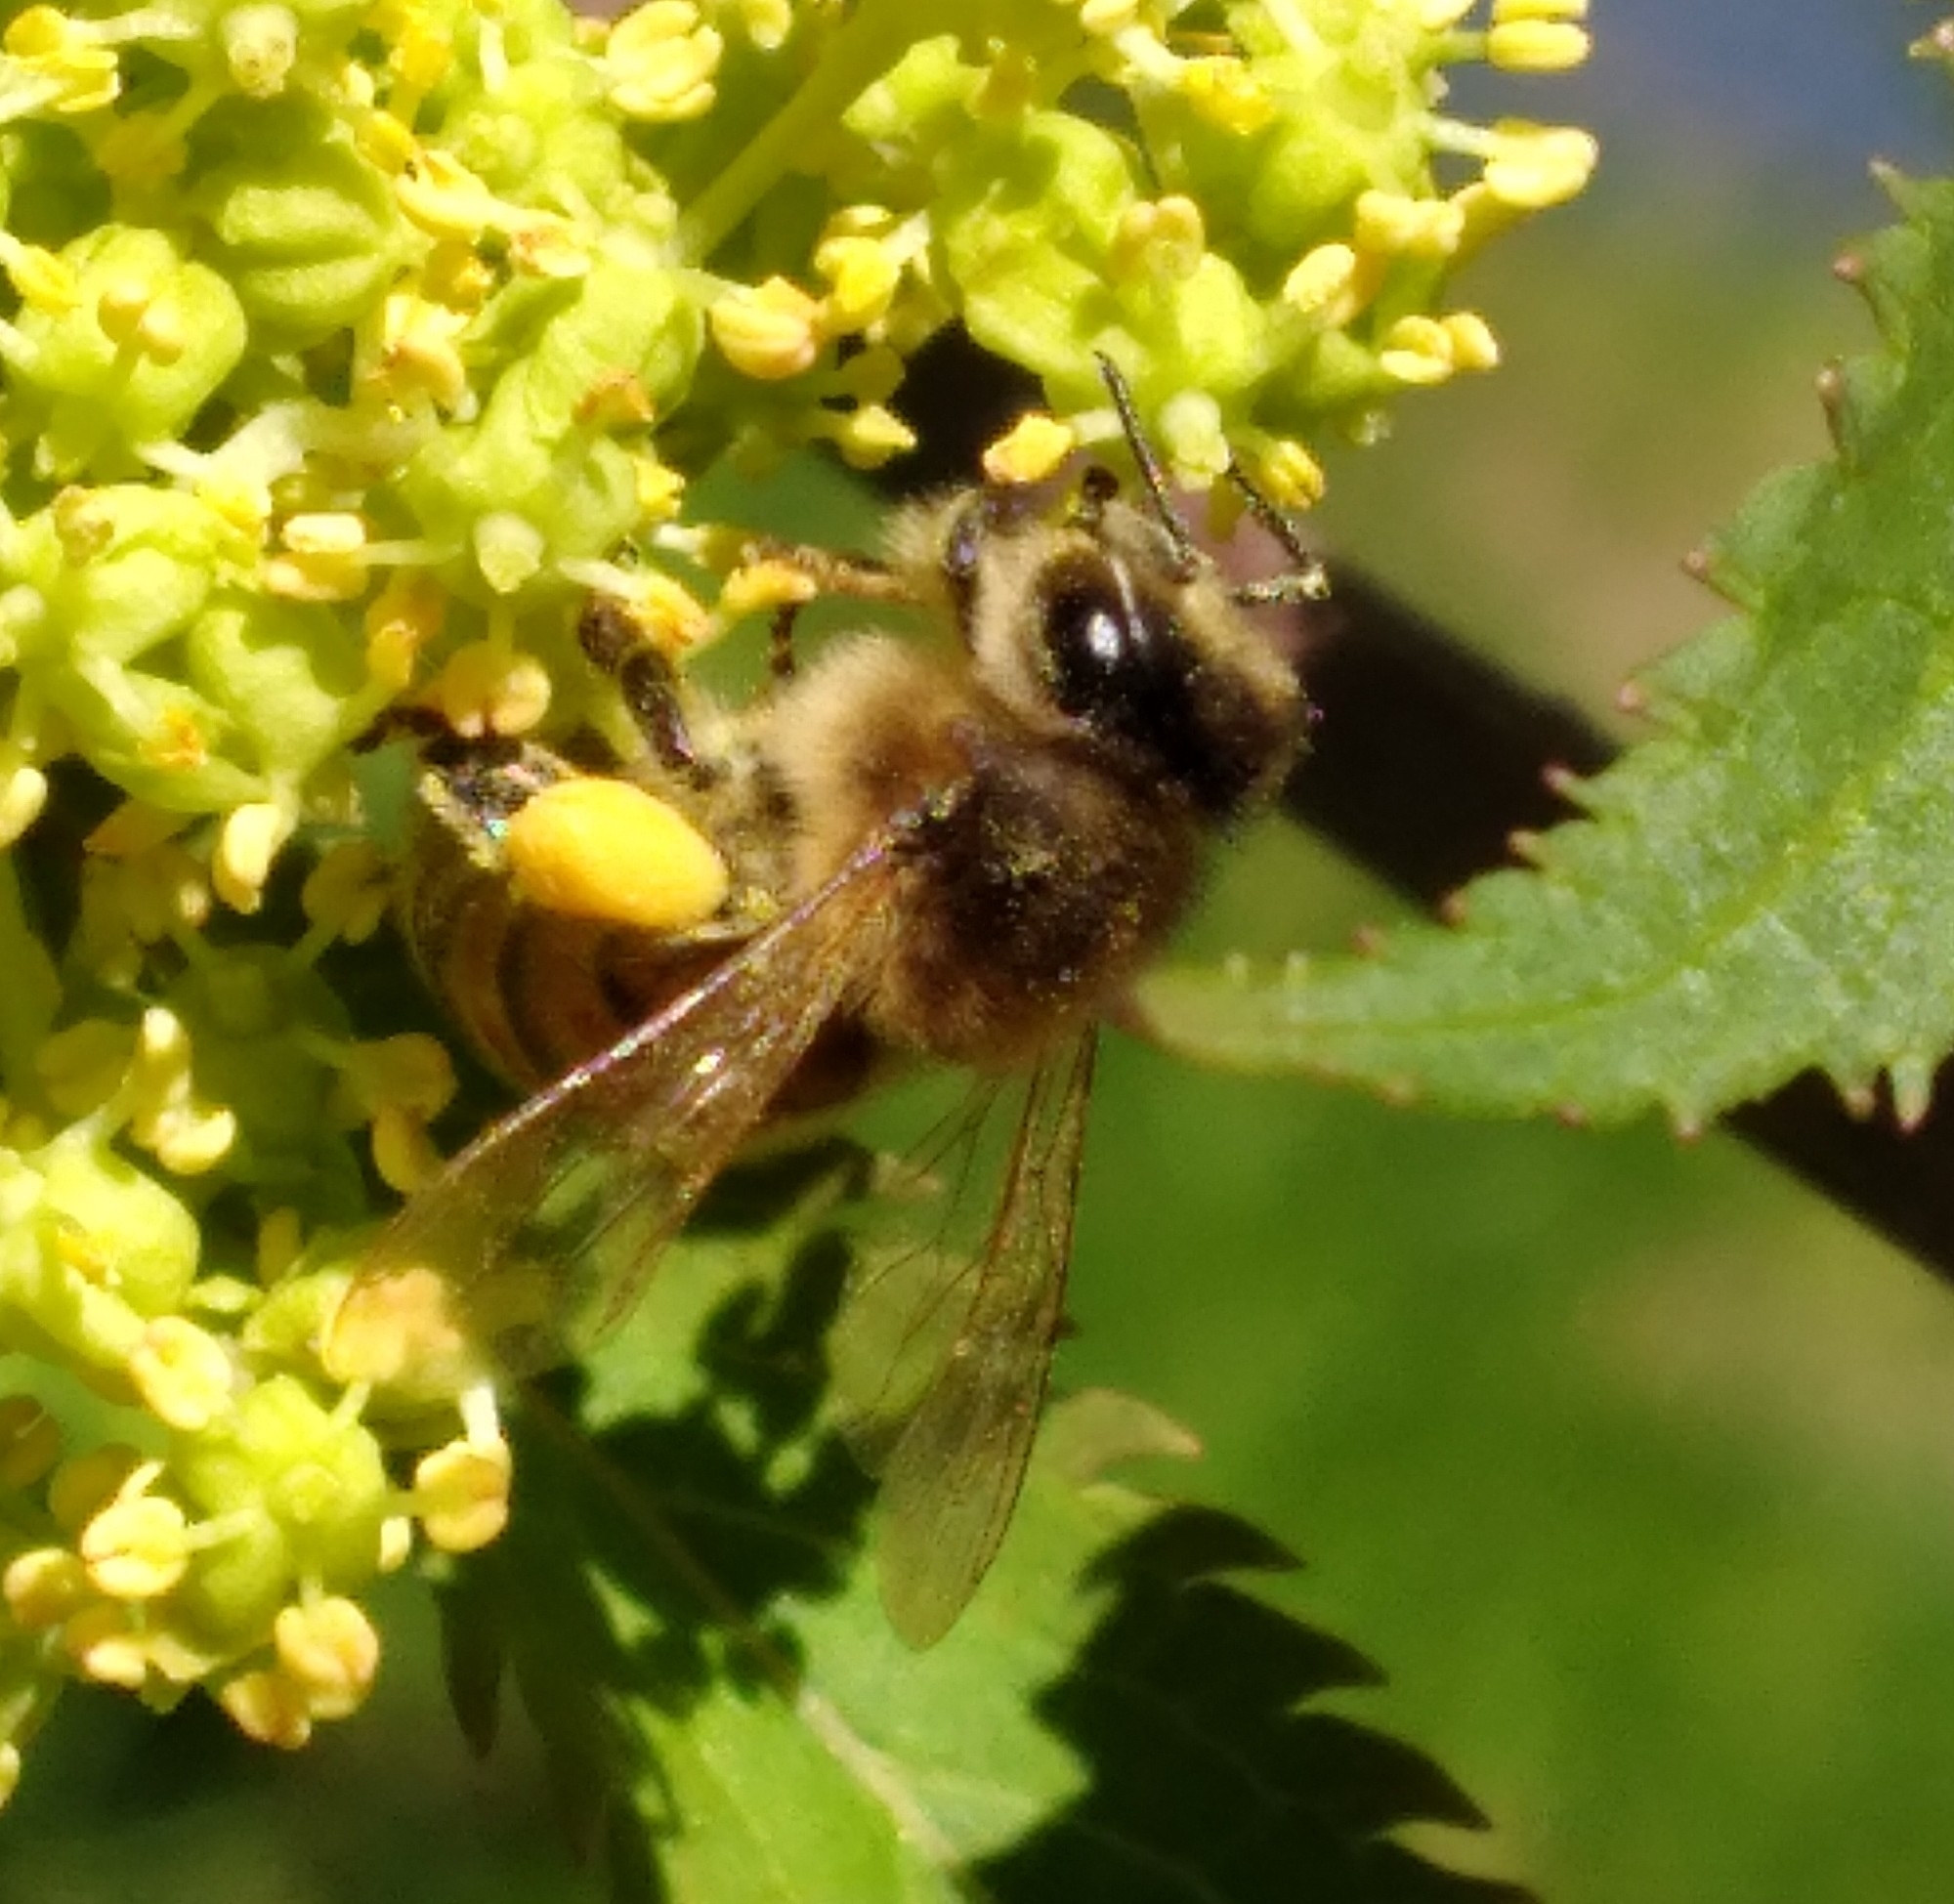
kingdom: Animalia
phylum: Arthropoda
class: Insecta
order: Hymenoptera
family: Apidae
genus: Apis
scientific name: Apis mellifera
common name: Honey bee
